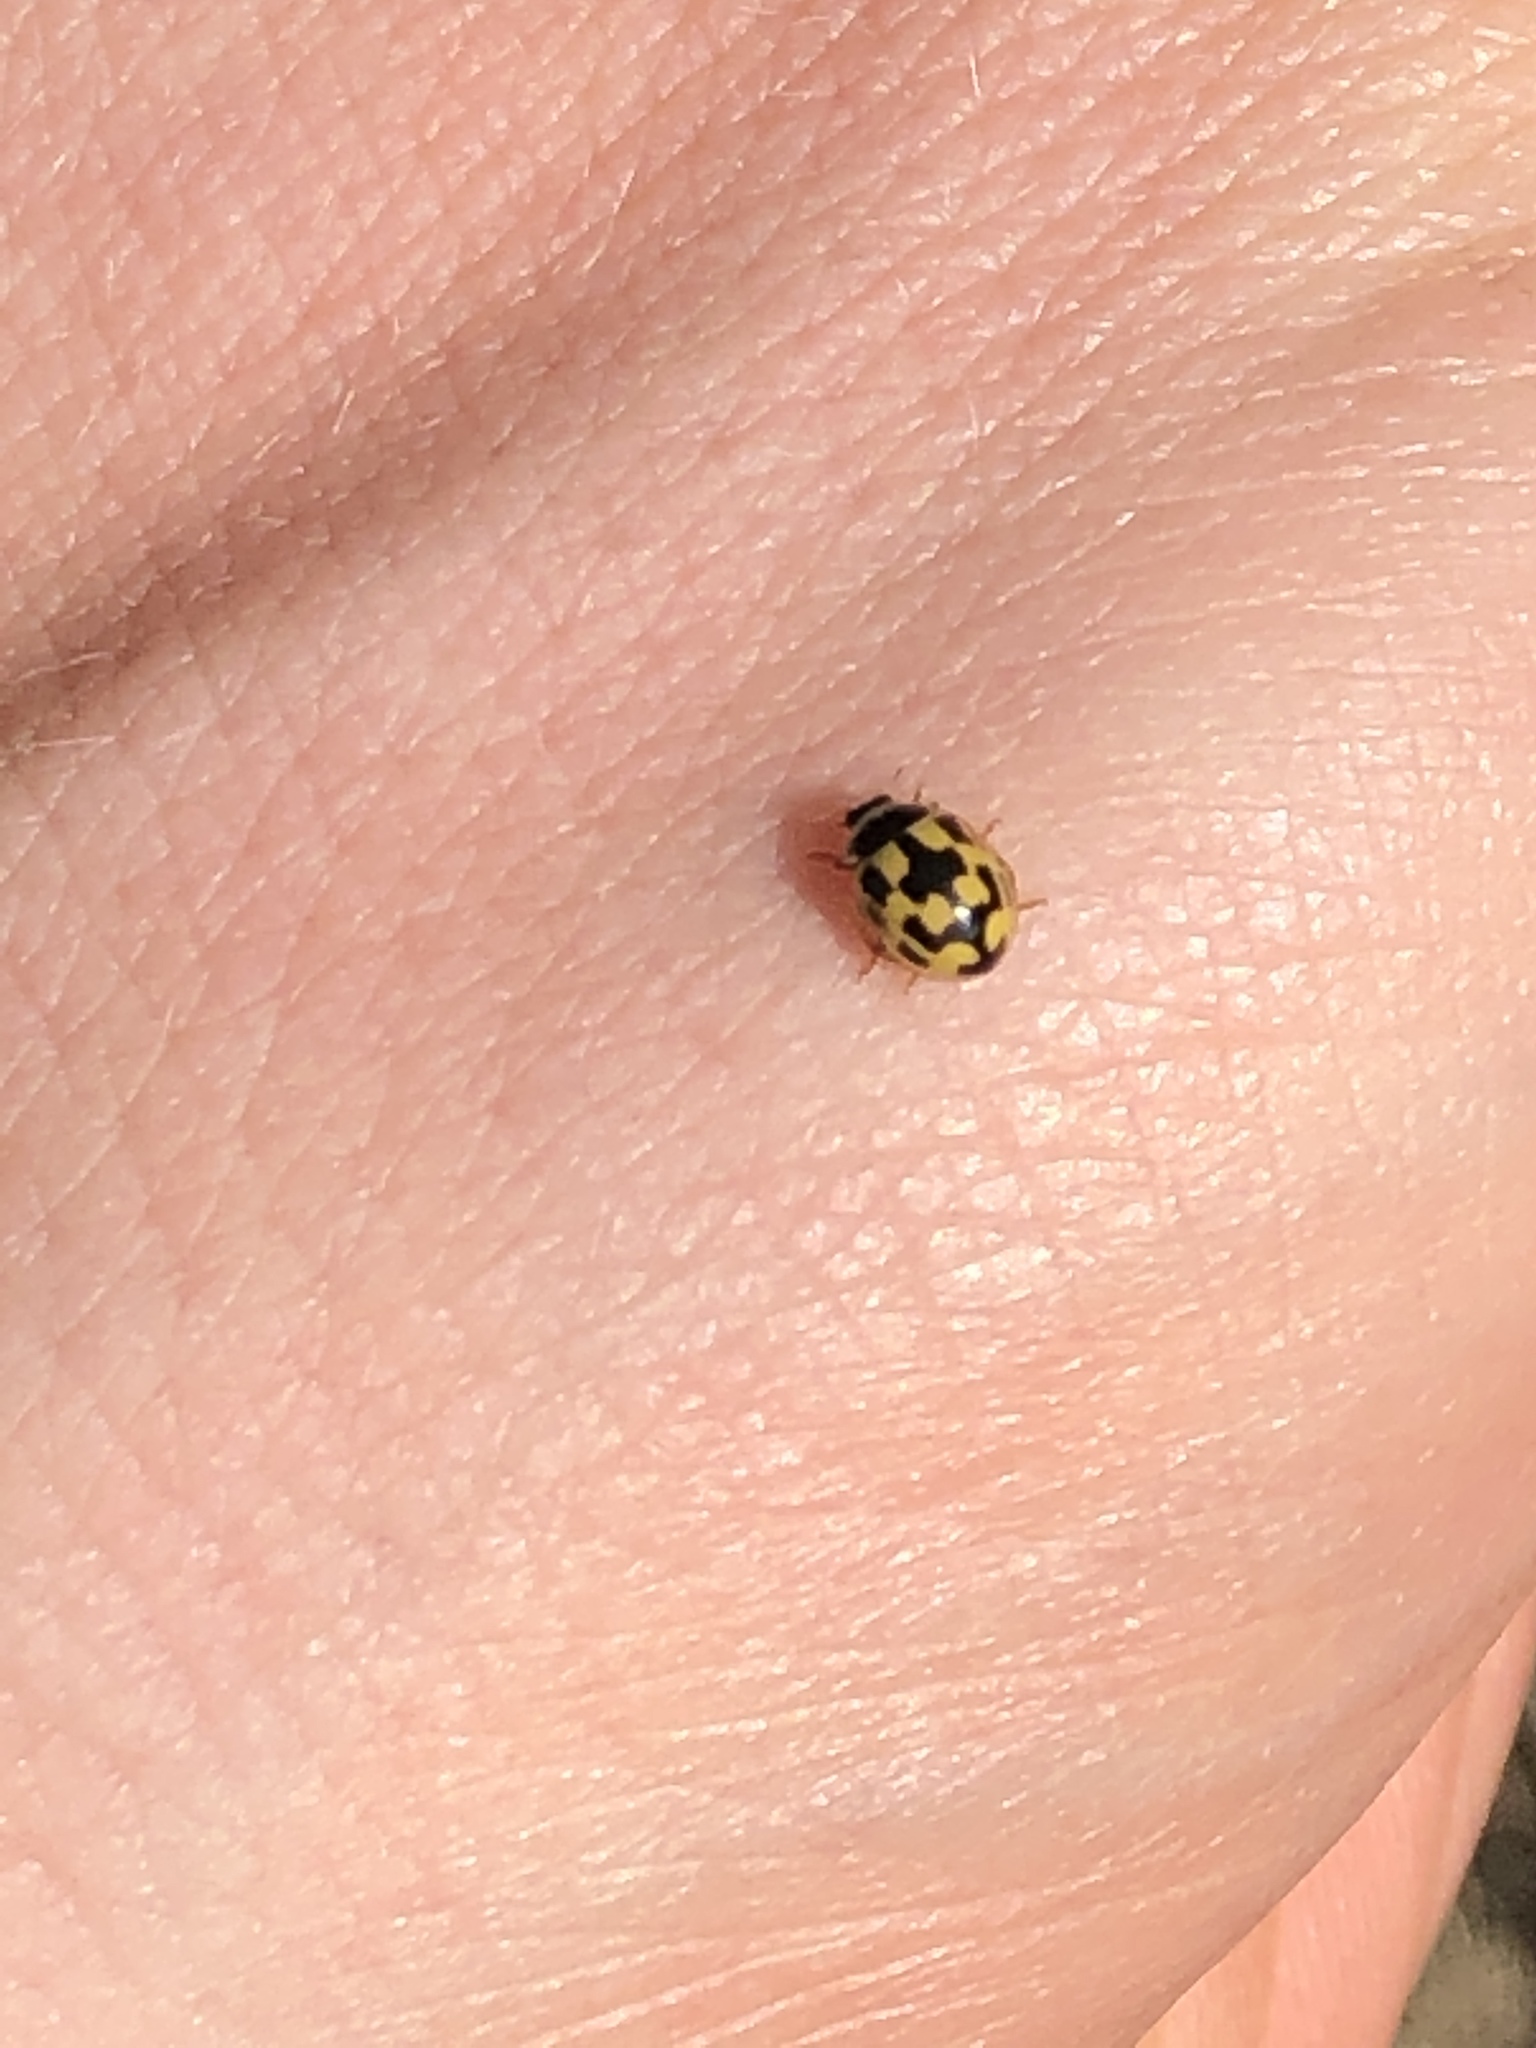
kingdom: Animalia
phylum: Arthropoda
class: Insecta
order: Coleoptera
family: Coccinellidae
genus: Propylaea
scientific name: Propylaea quatuordecimpunctata
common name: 14-spotted ladybird beetle
